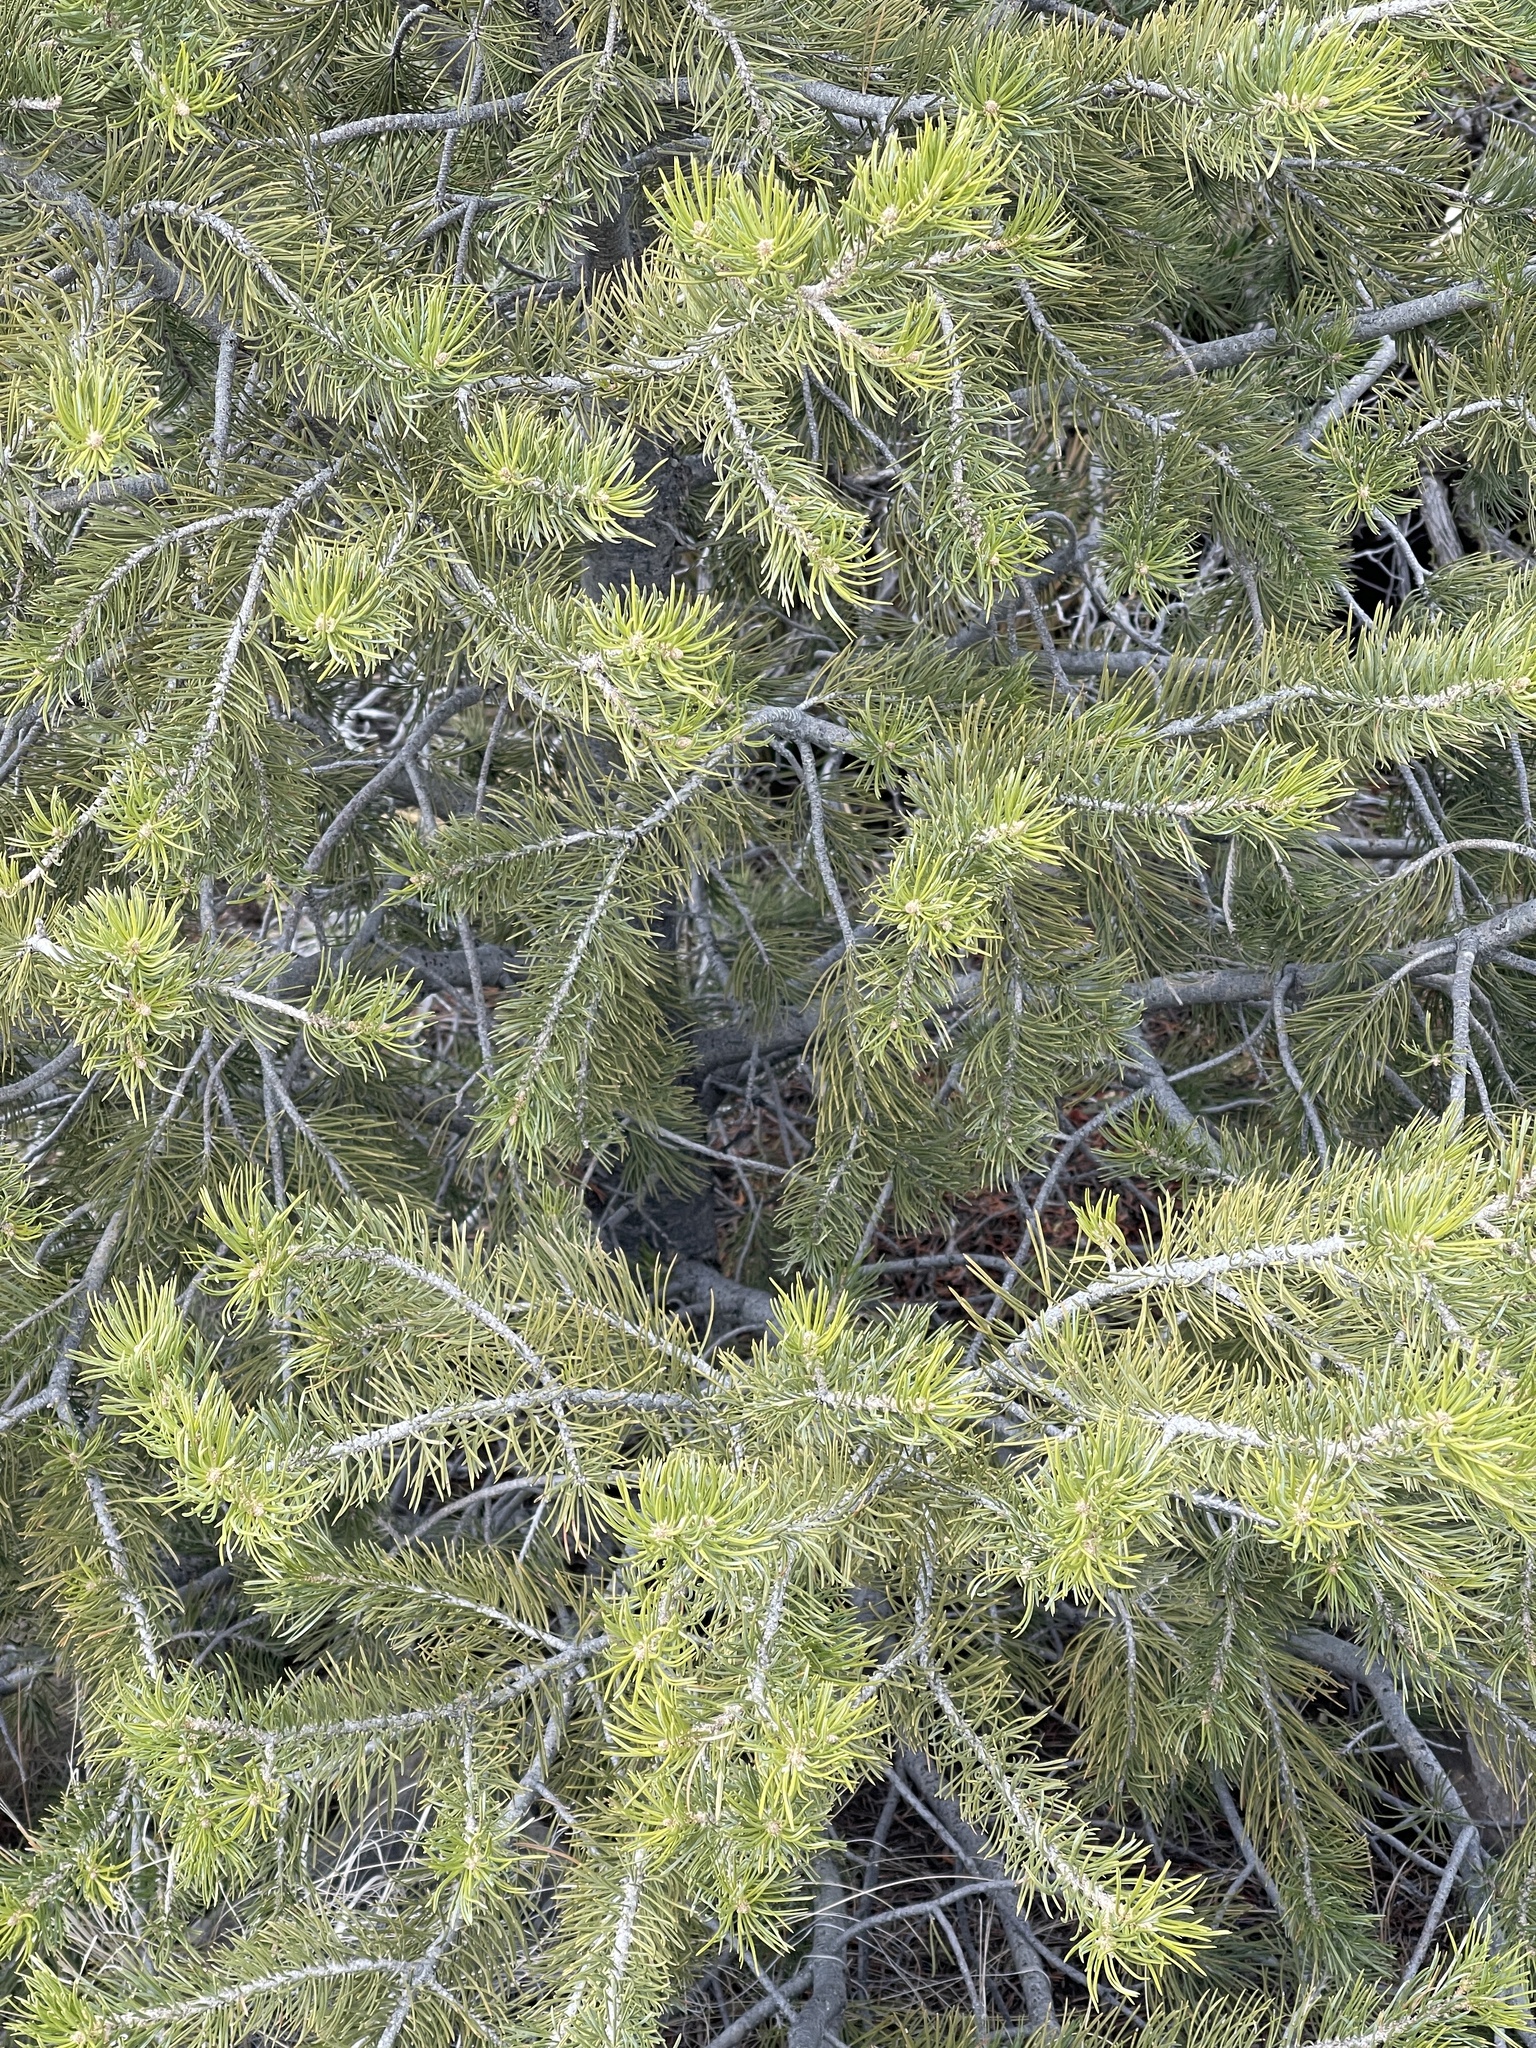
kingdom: Plantae
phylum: Tracheophyta
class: Pinopsida
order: Pinales
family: Pinaceae
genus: Pinus
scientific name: Pinus edulis
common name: Colorado pinyon
